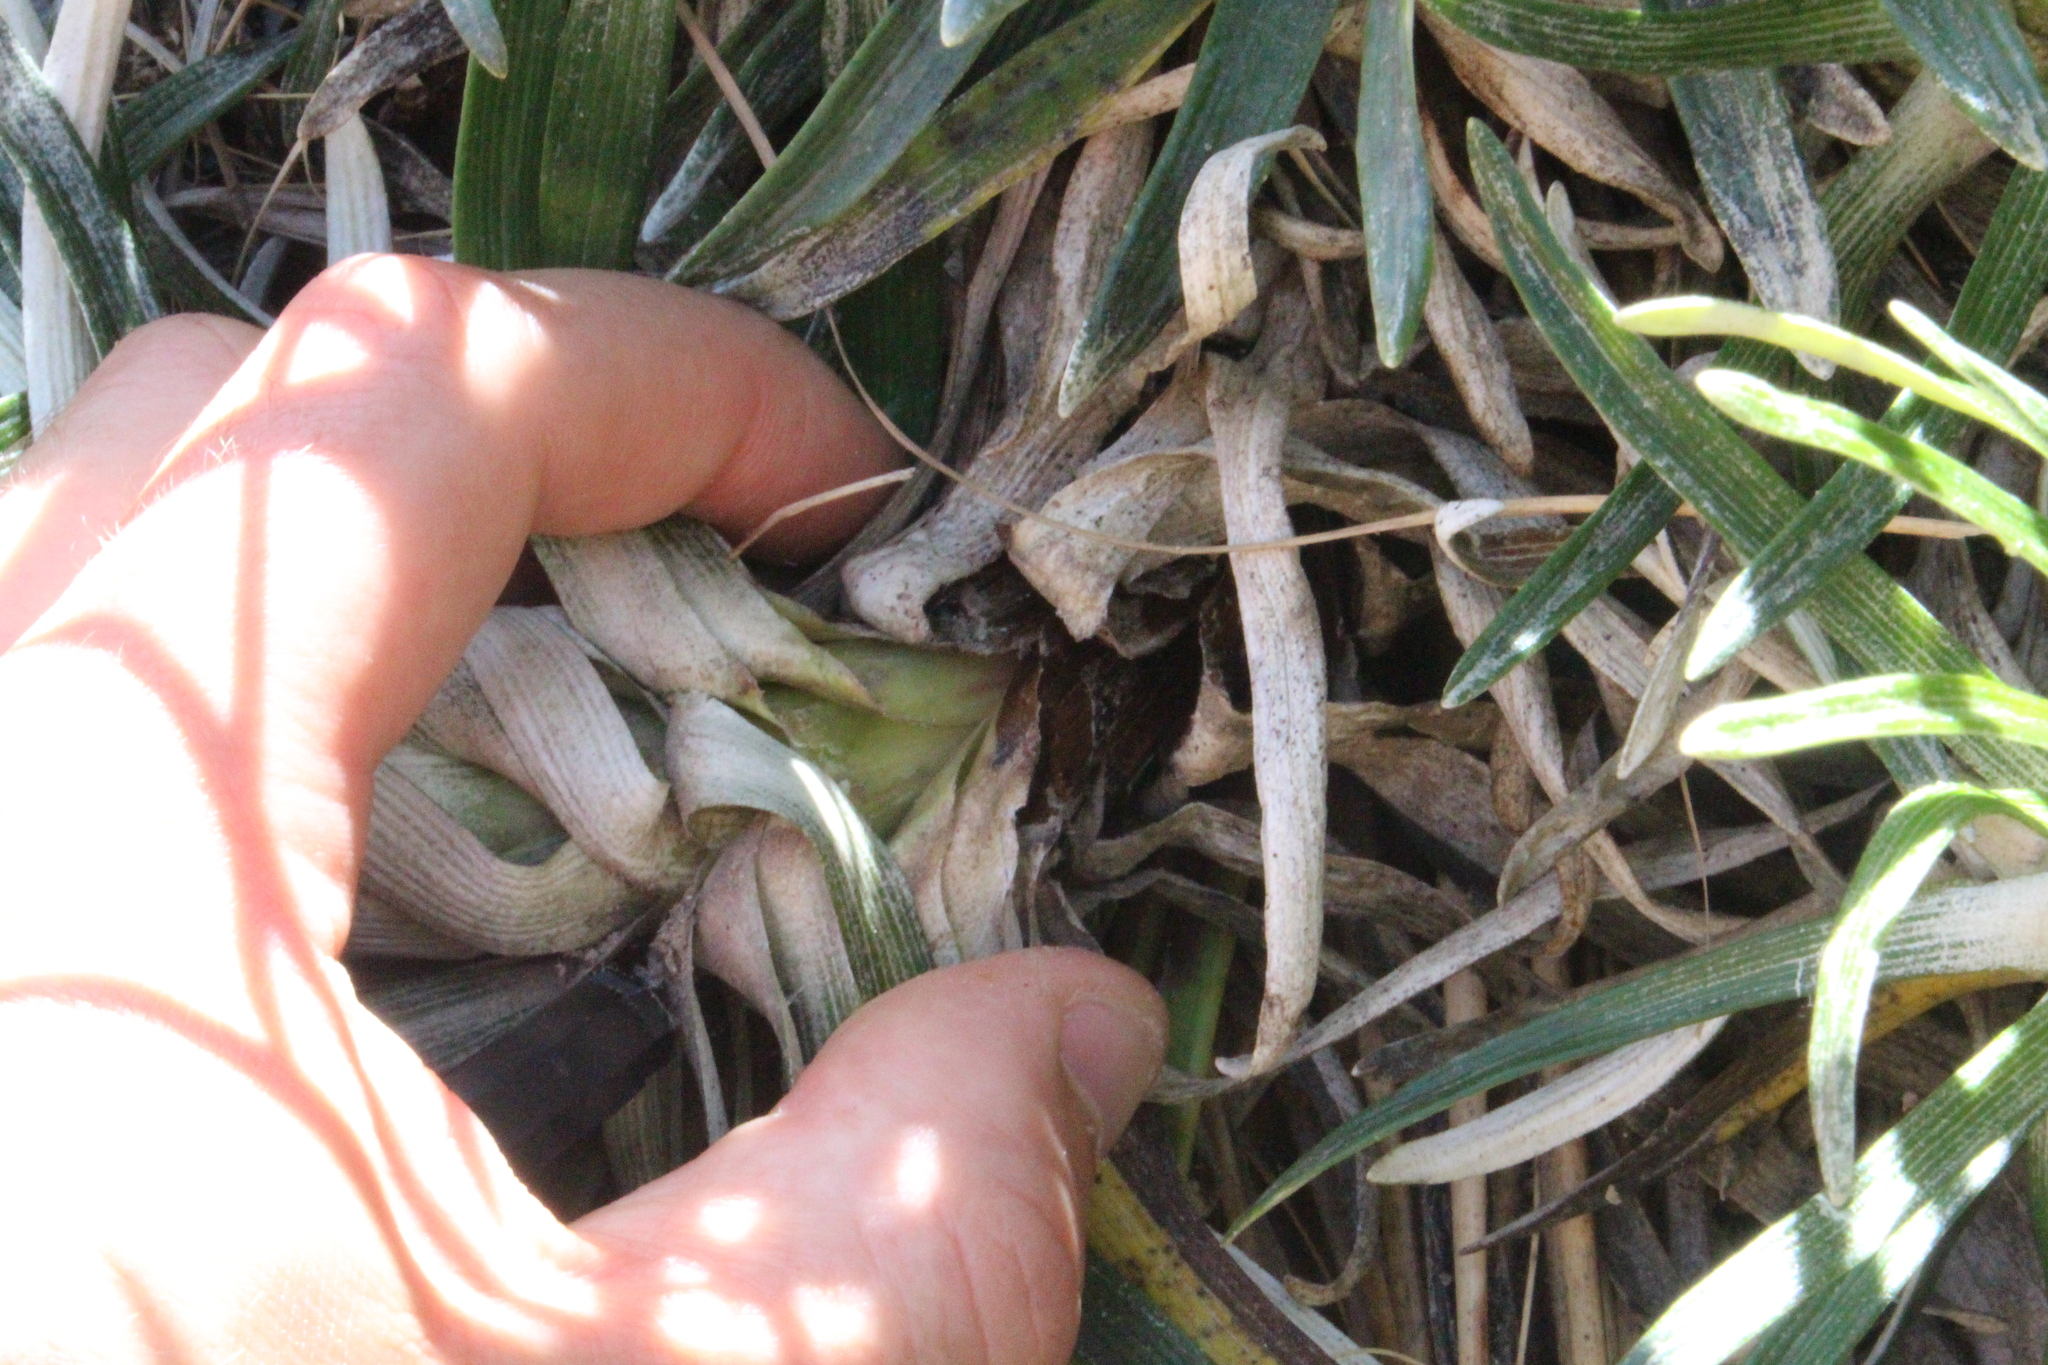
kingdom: Plantae
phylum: Tracheophyta
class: Magnoliopsida
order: Asterales
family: Asteraceae
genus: Celmisia
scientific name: Celmisia viscosa
